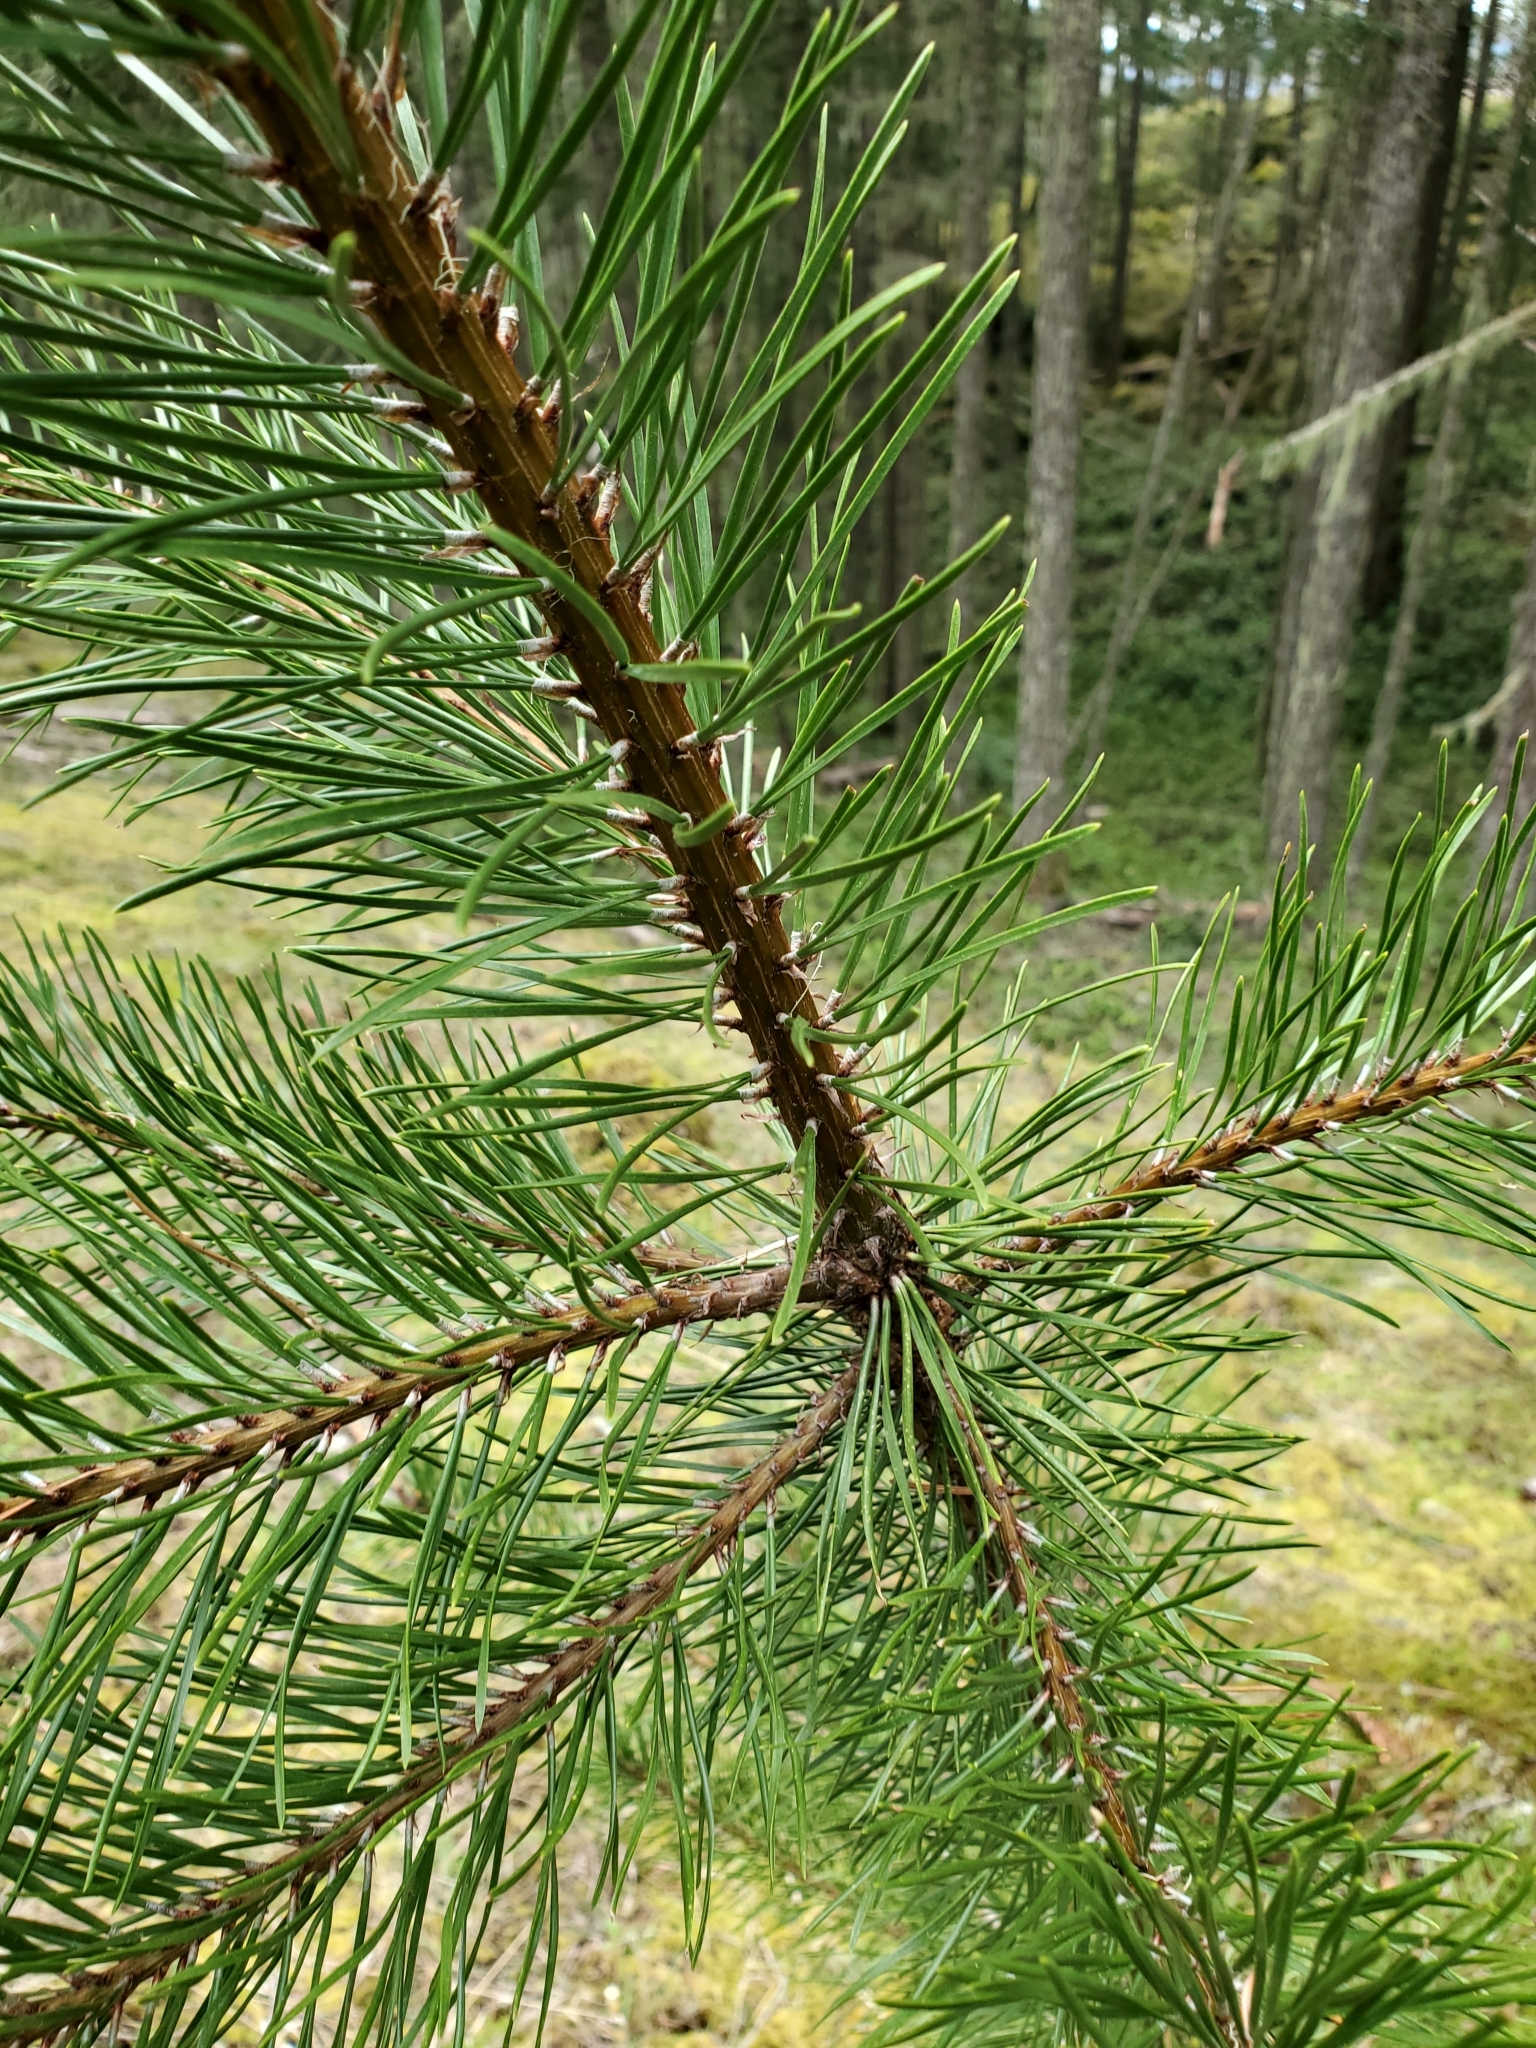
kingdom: Plantae
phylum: Tracheophyta
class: Pinopsida
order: Pinales
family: Pinaceae
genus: Pinus
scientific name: Pinus contorta
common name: Lodgepole pine
